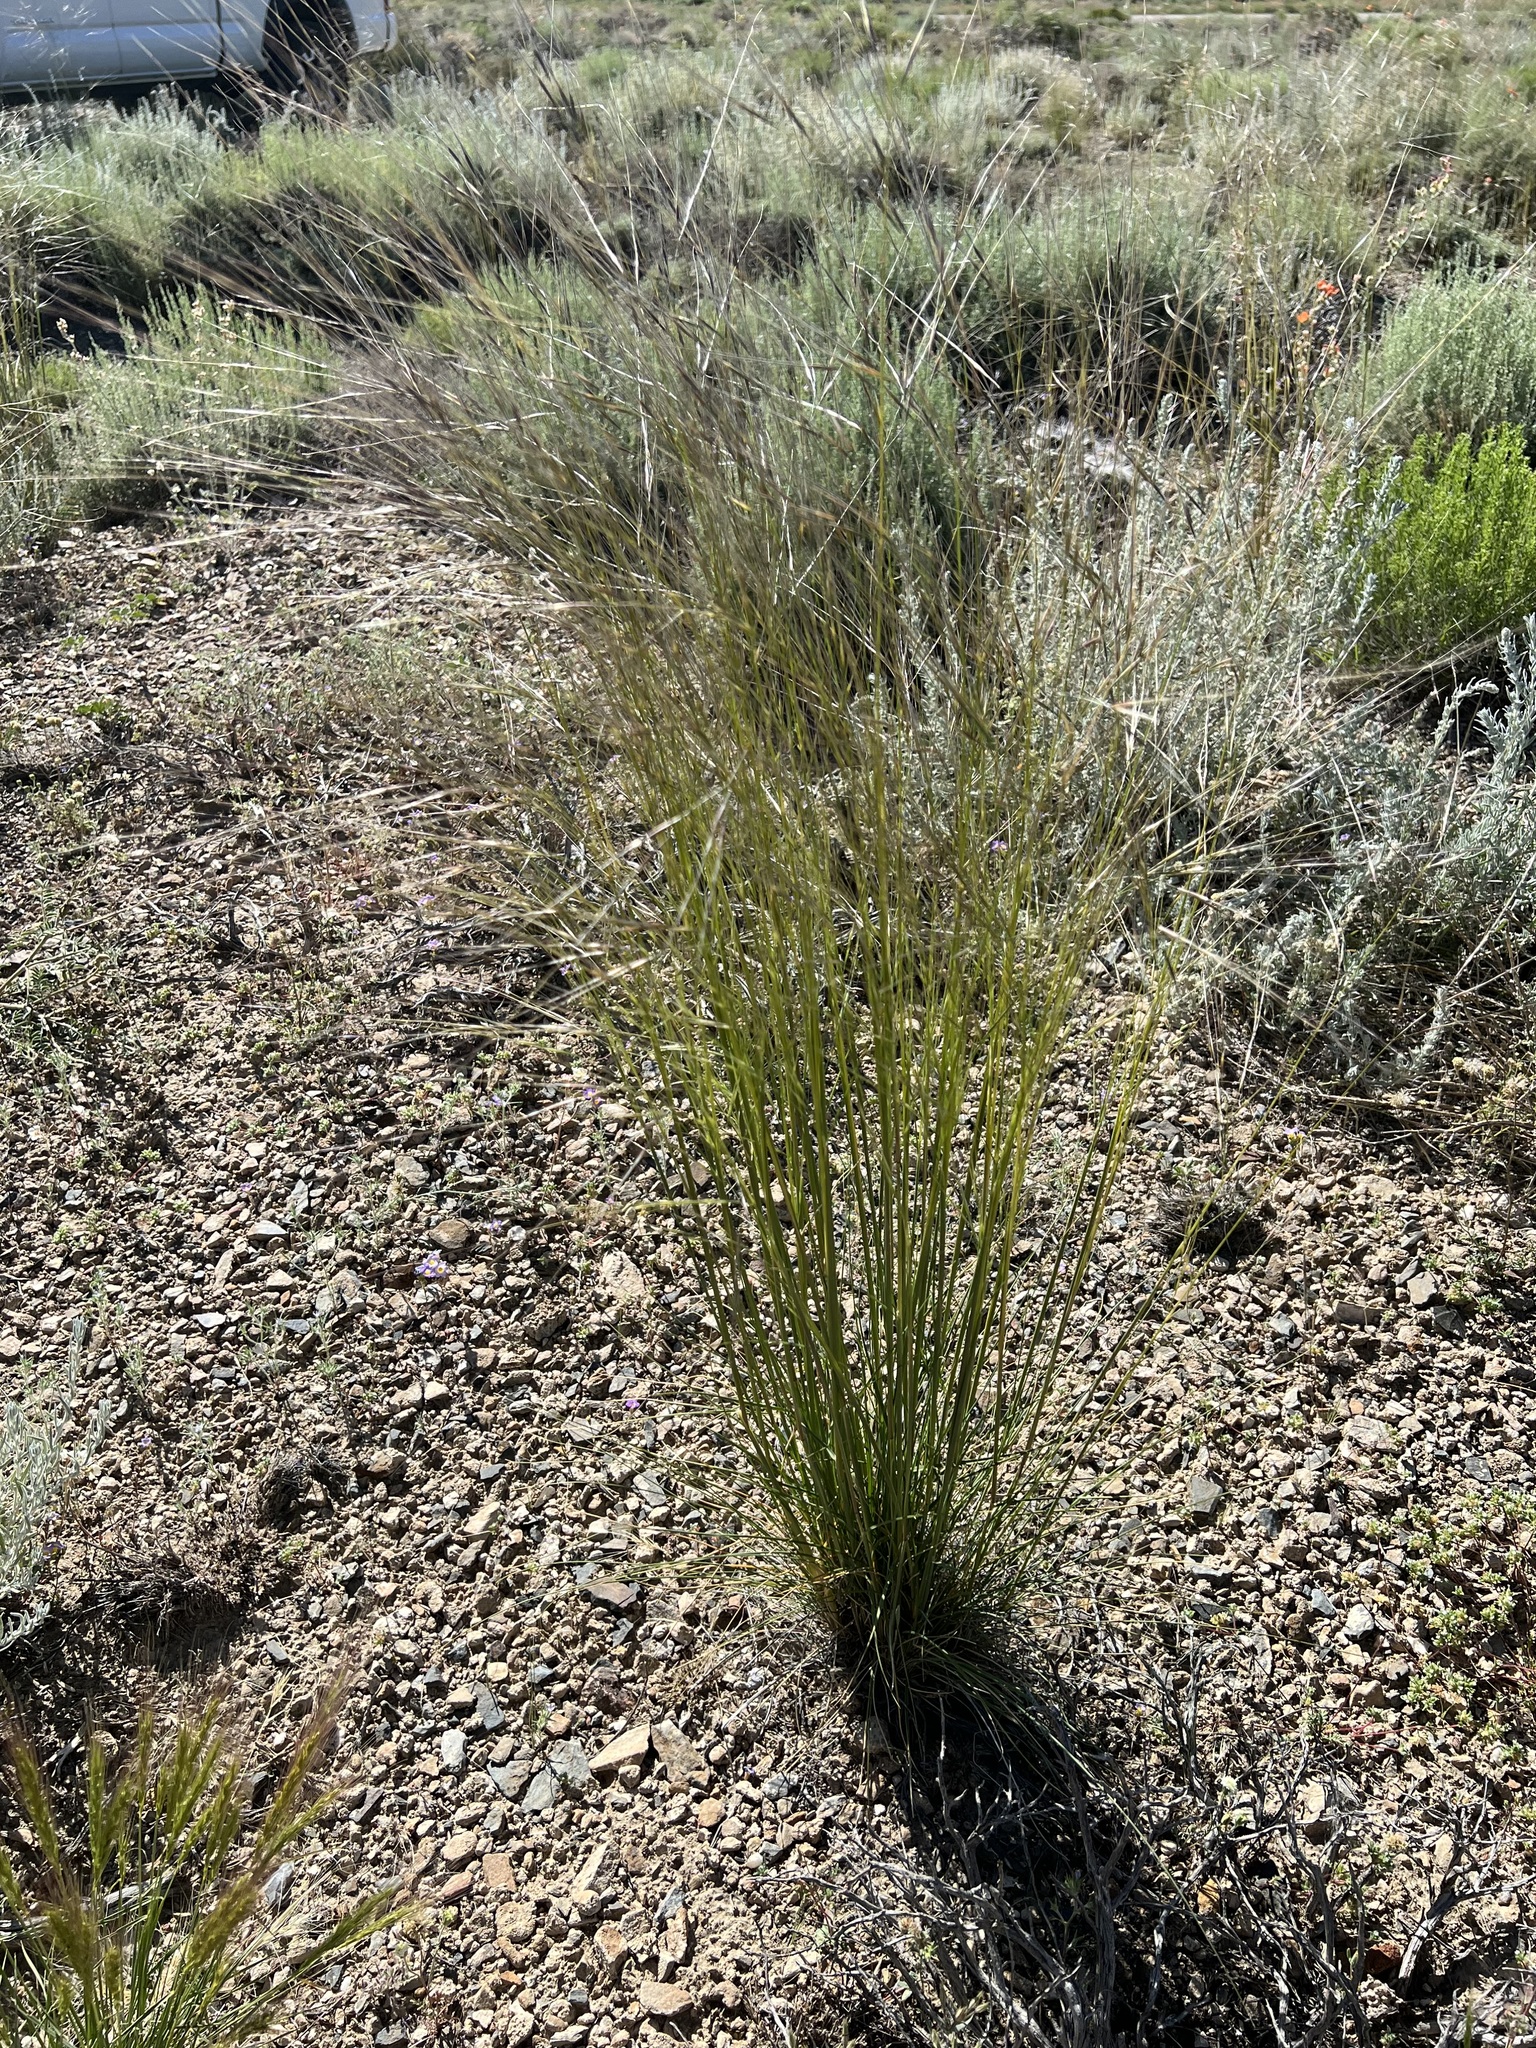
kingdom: Plantae
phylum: Tracheophyta
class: Liliopsida
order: Poales
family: Poaceae
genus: Hesperostipa
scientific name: Hesperostipa comata
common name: Needle-and-thread grass
